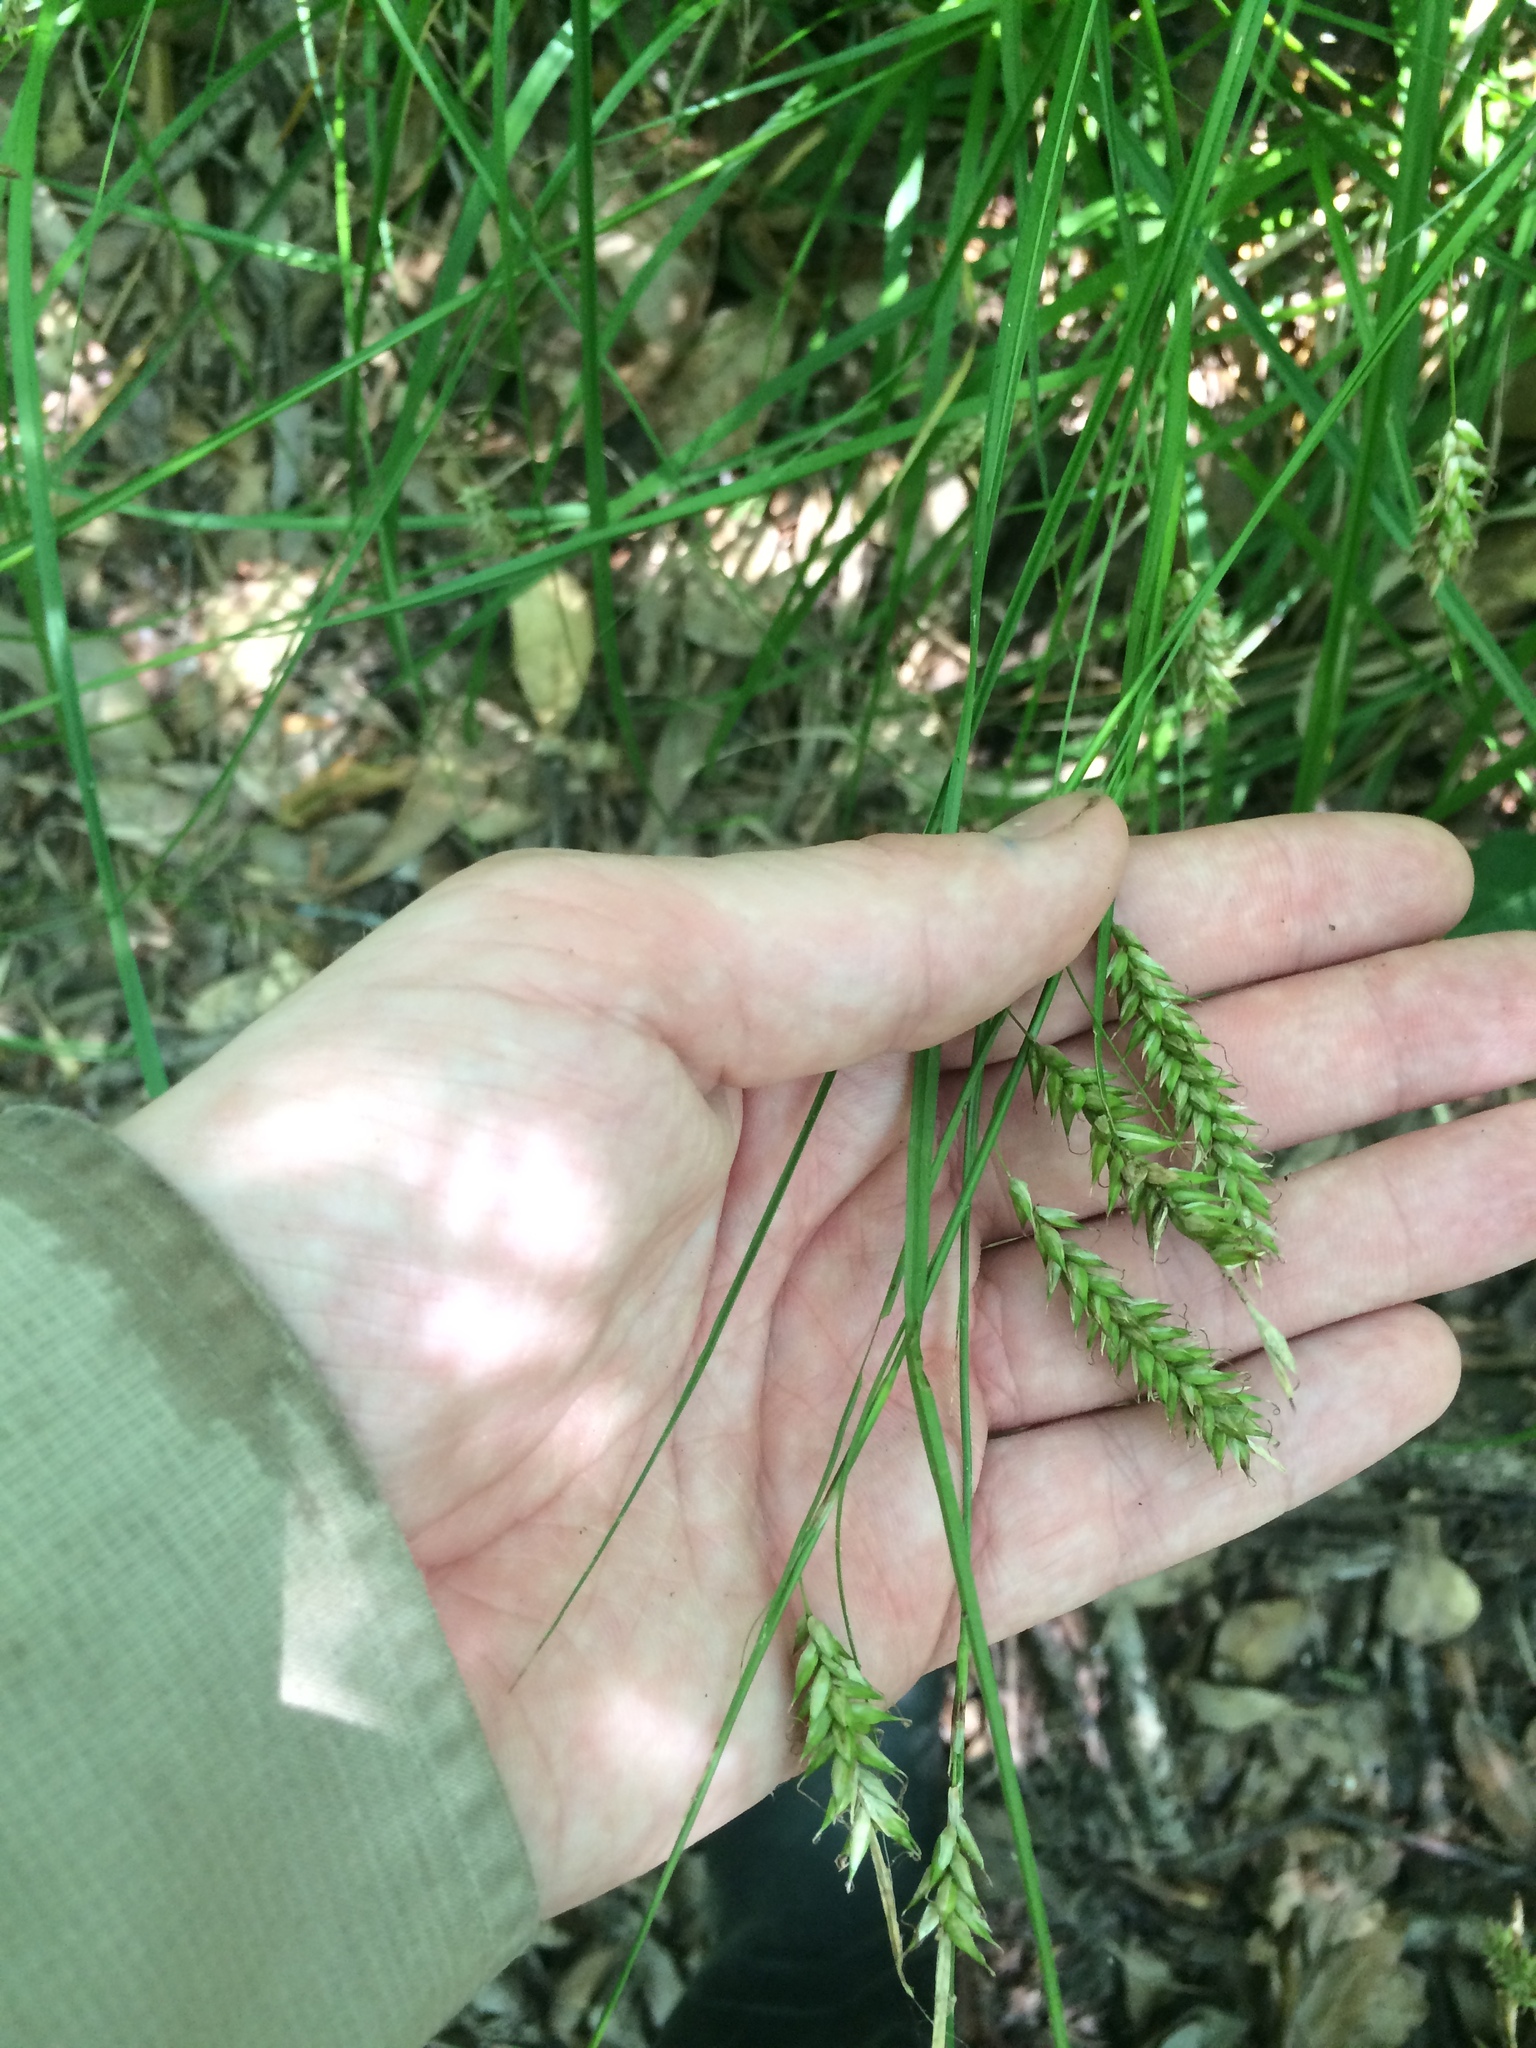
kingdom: Plantae
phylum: Tracheophyta
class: Liliopsida
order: Poales
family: Cyperaceae
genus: Carex
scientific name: Carex cherokeensis
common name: Cherokee sedge
